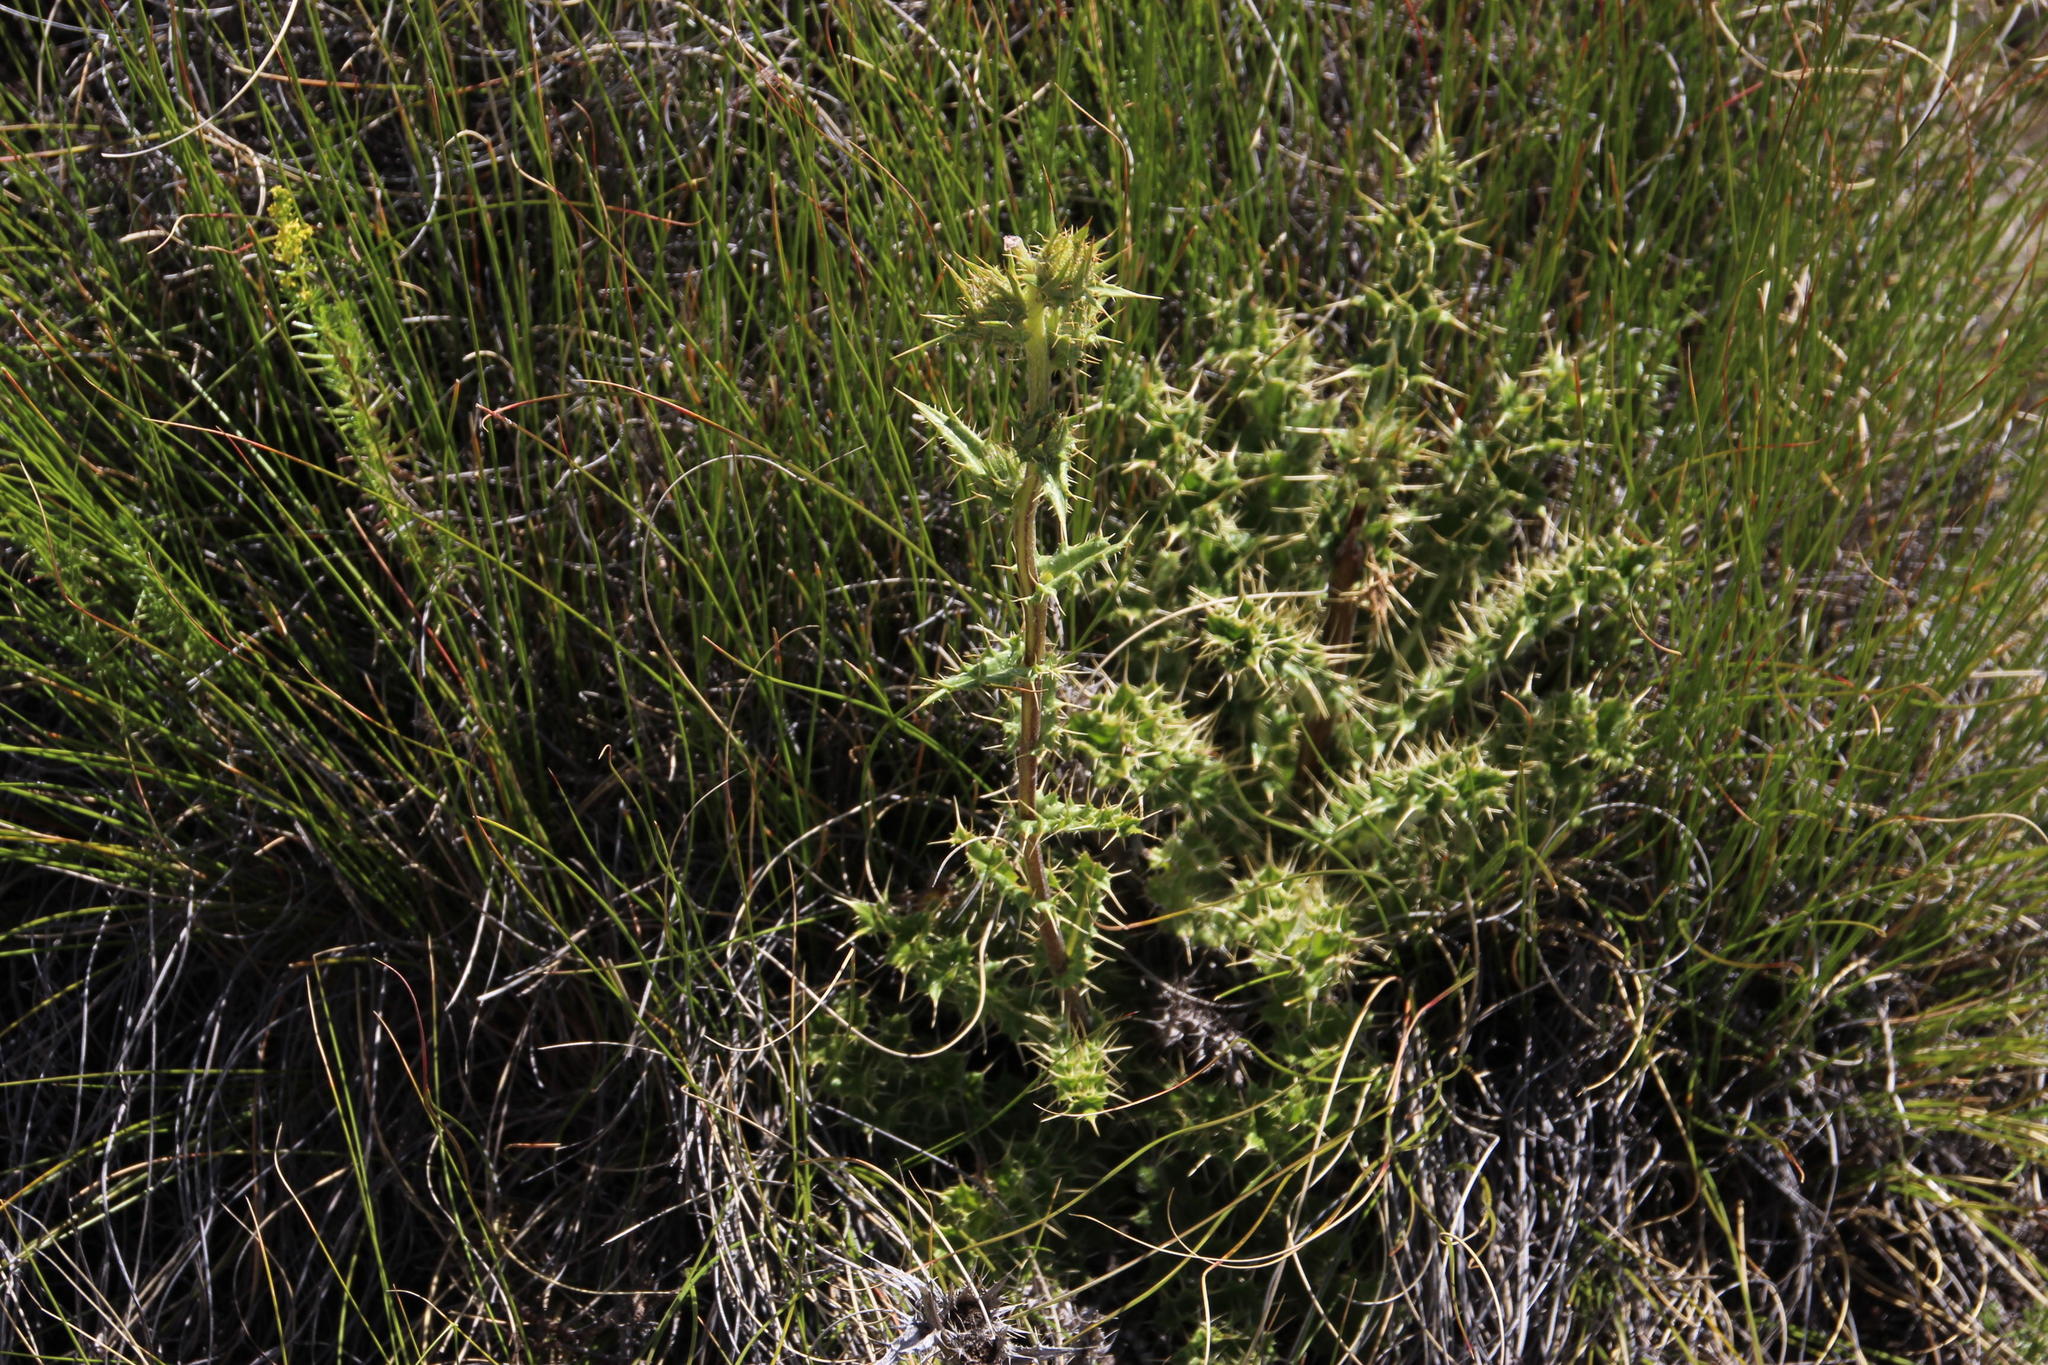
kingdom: Plantae
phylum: Tracheophyta
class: Magnoliopsida
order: Asterales
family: Asteraceae
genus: Berkheya
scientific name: Berkheya carlinifolia
